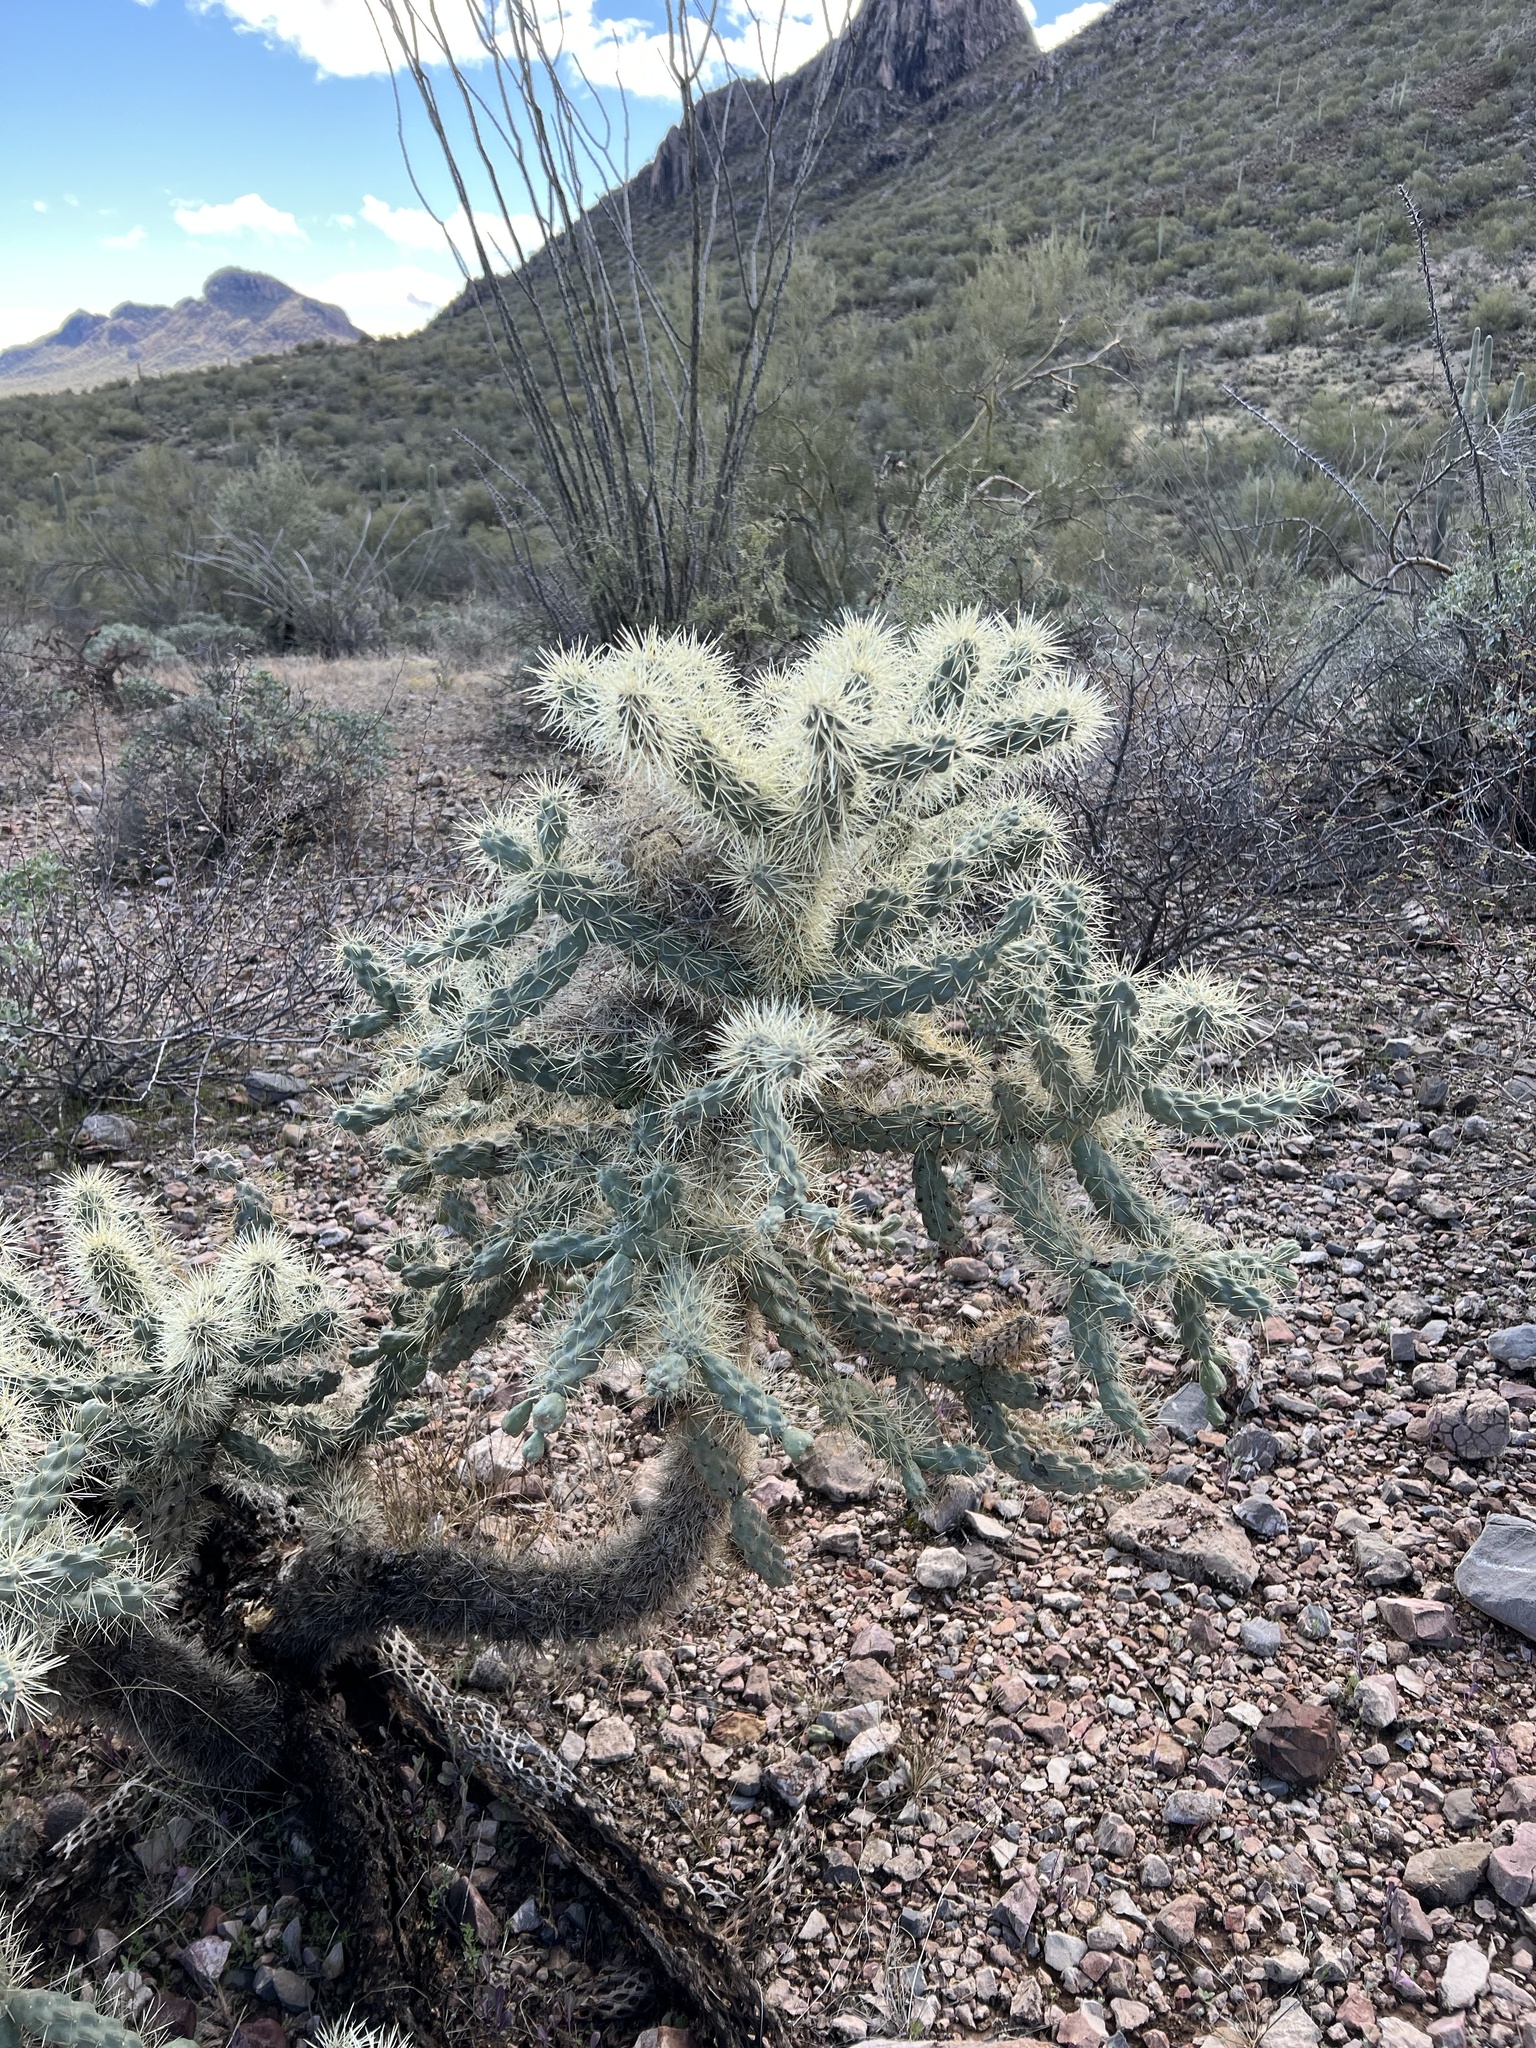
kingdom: Plantae
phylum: Tracheophyta
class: Magnoliopsida
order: Caryophyllales
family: Cactaceae
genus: Cylindropuntia
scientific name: Cylindropuntia fulgida
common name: Jumping cholla
